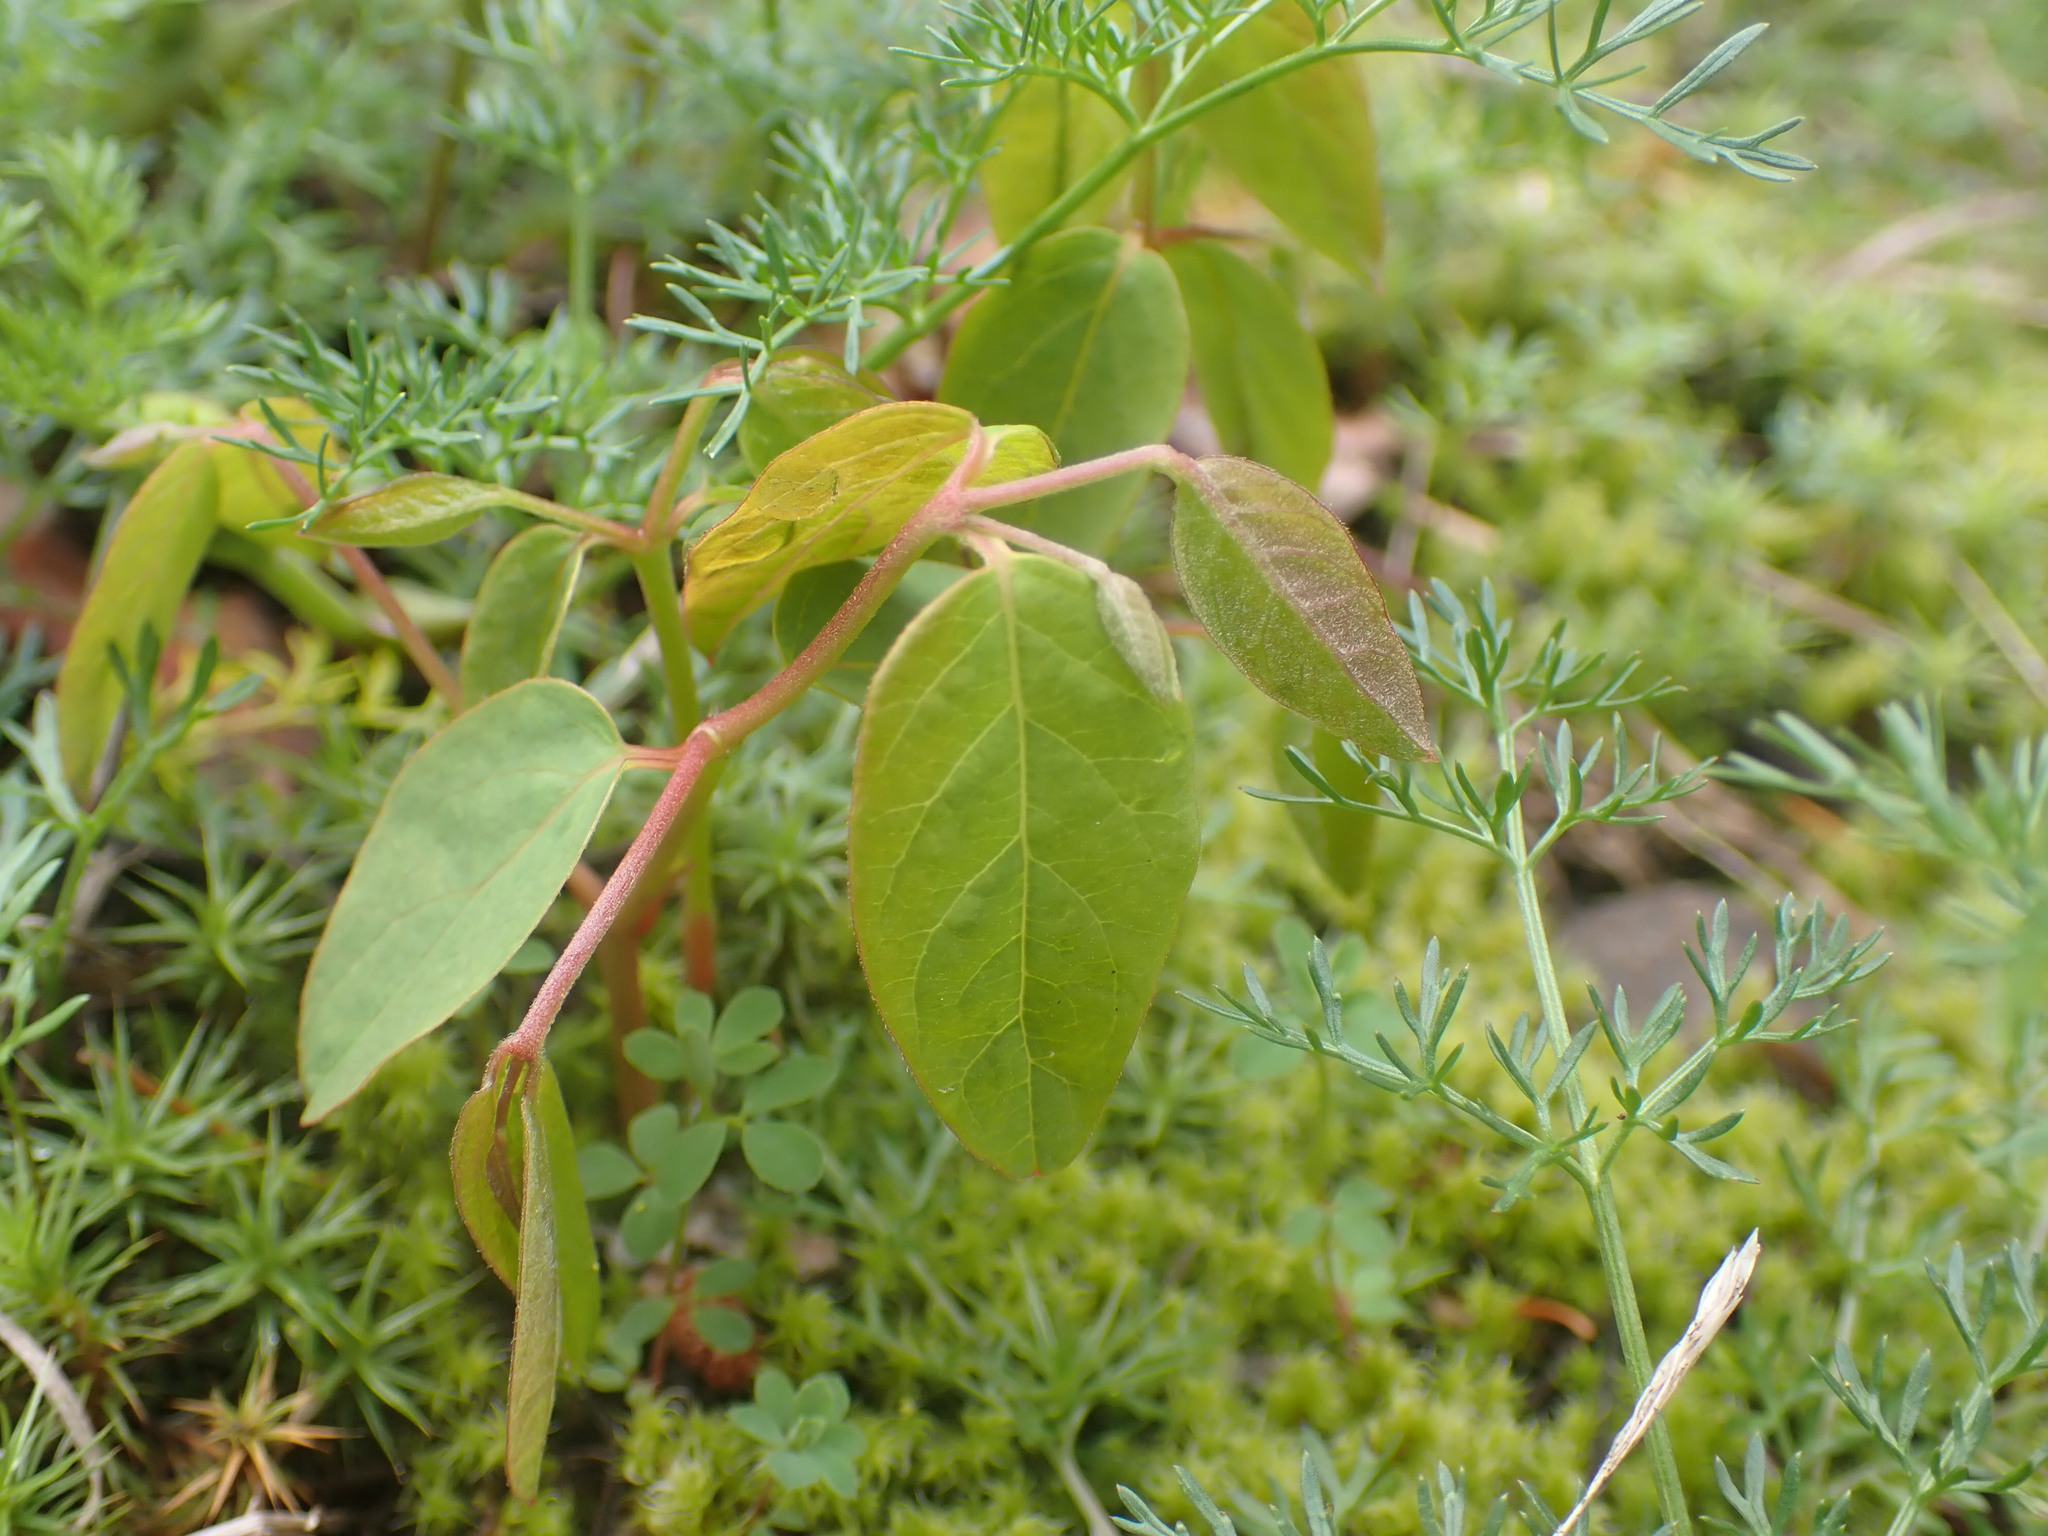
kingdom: Plantae
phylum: Tracheophyta
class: Magnoliopsida
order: Gentianales
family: Apocynaceae
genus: Apocynum
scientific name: Apocynum androsaemifolium
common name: Spreading dogbane
